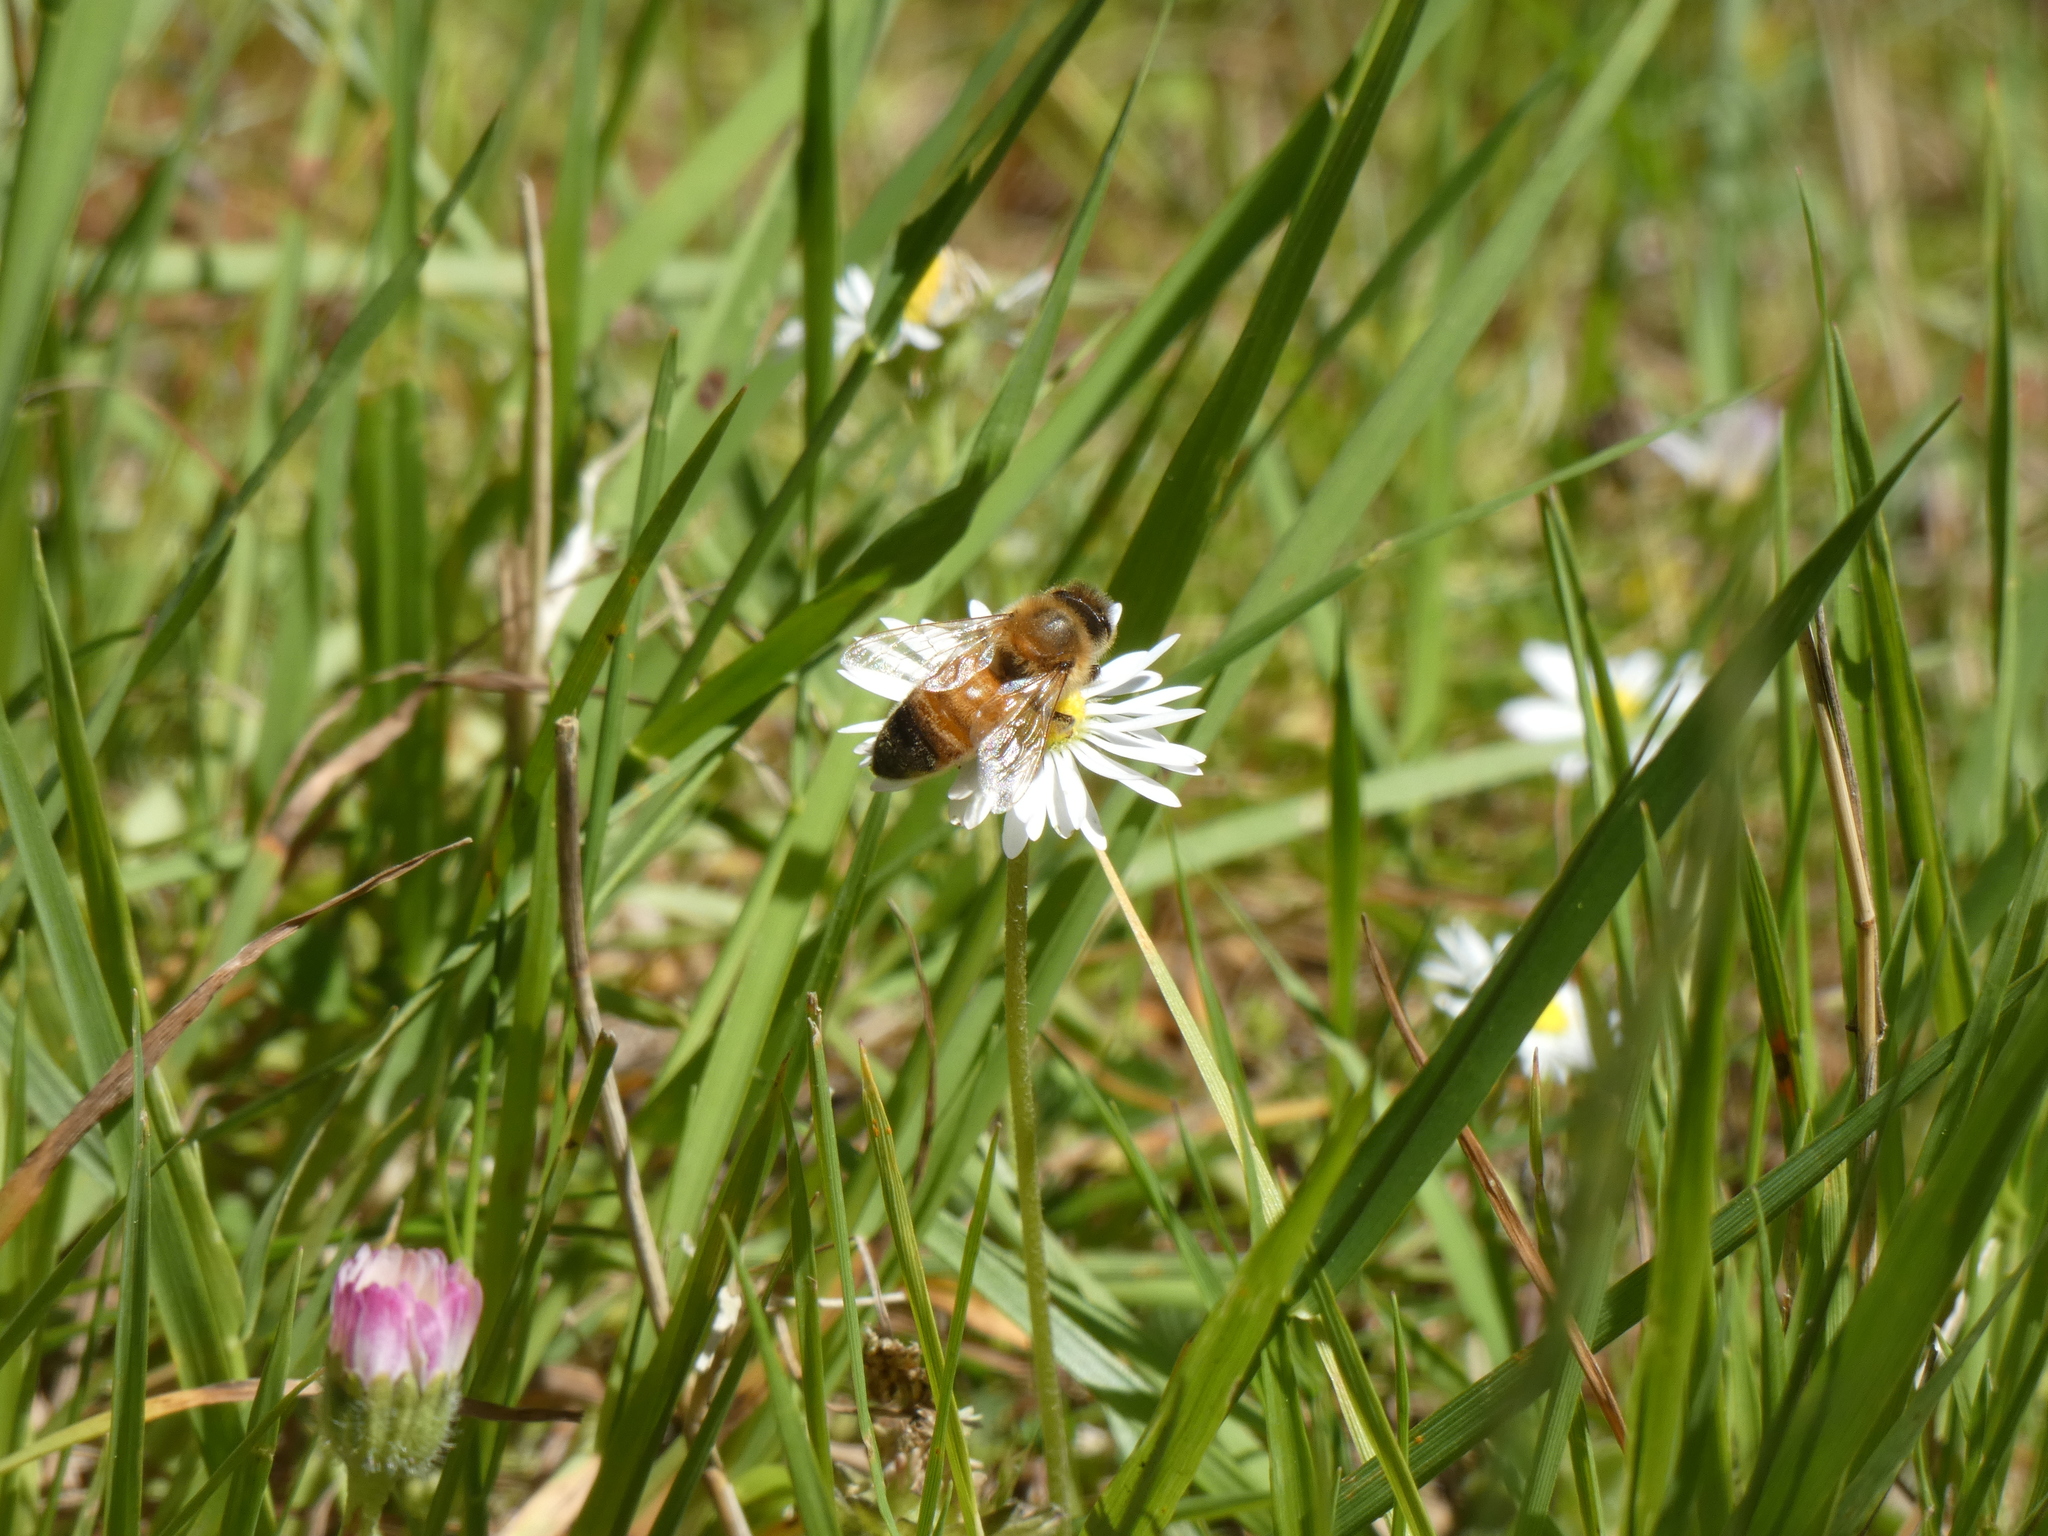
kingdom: Animalia
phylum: Arthropoda
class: Insecta
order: Hymenoptera
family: Apidae
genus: Apis
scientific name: Apis mellifera
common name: Honey bee
